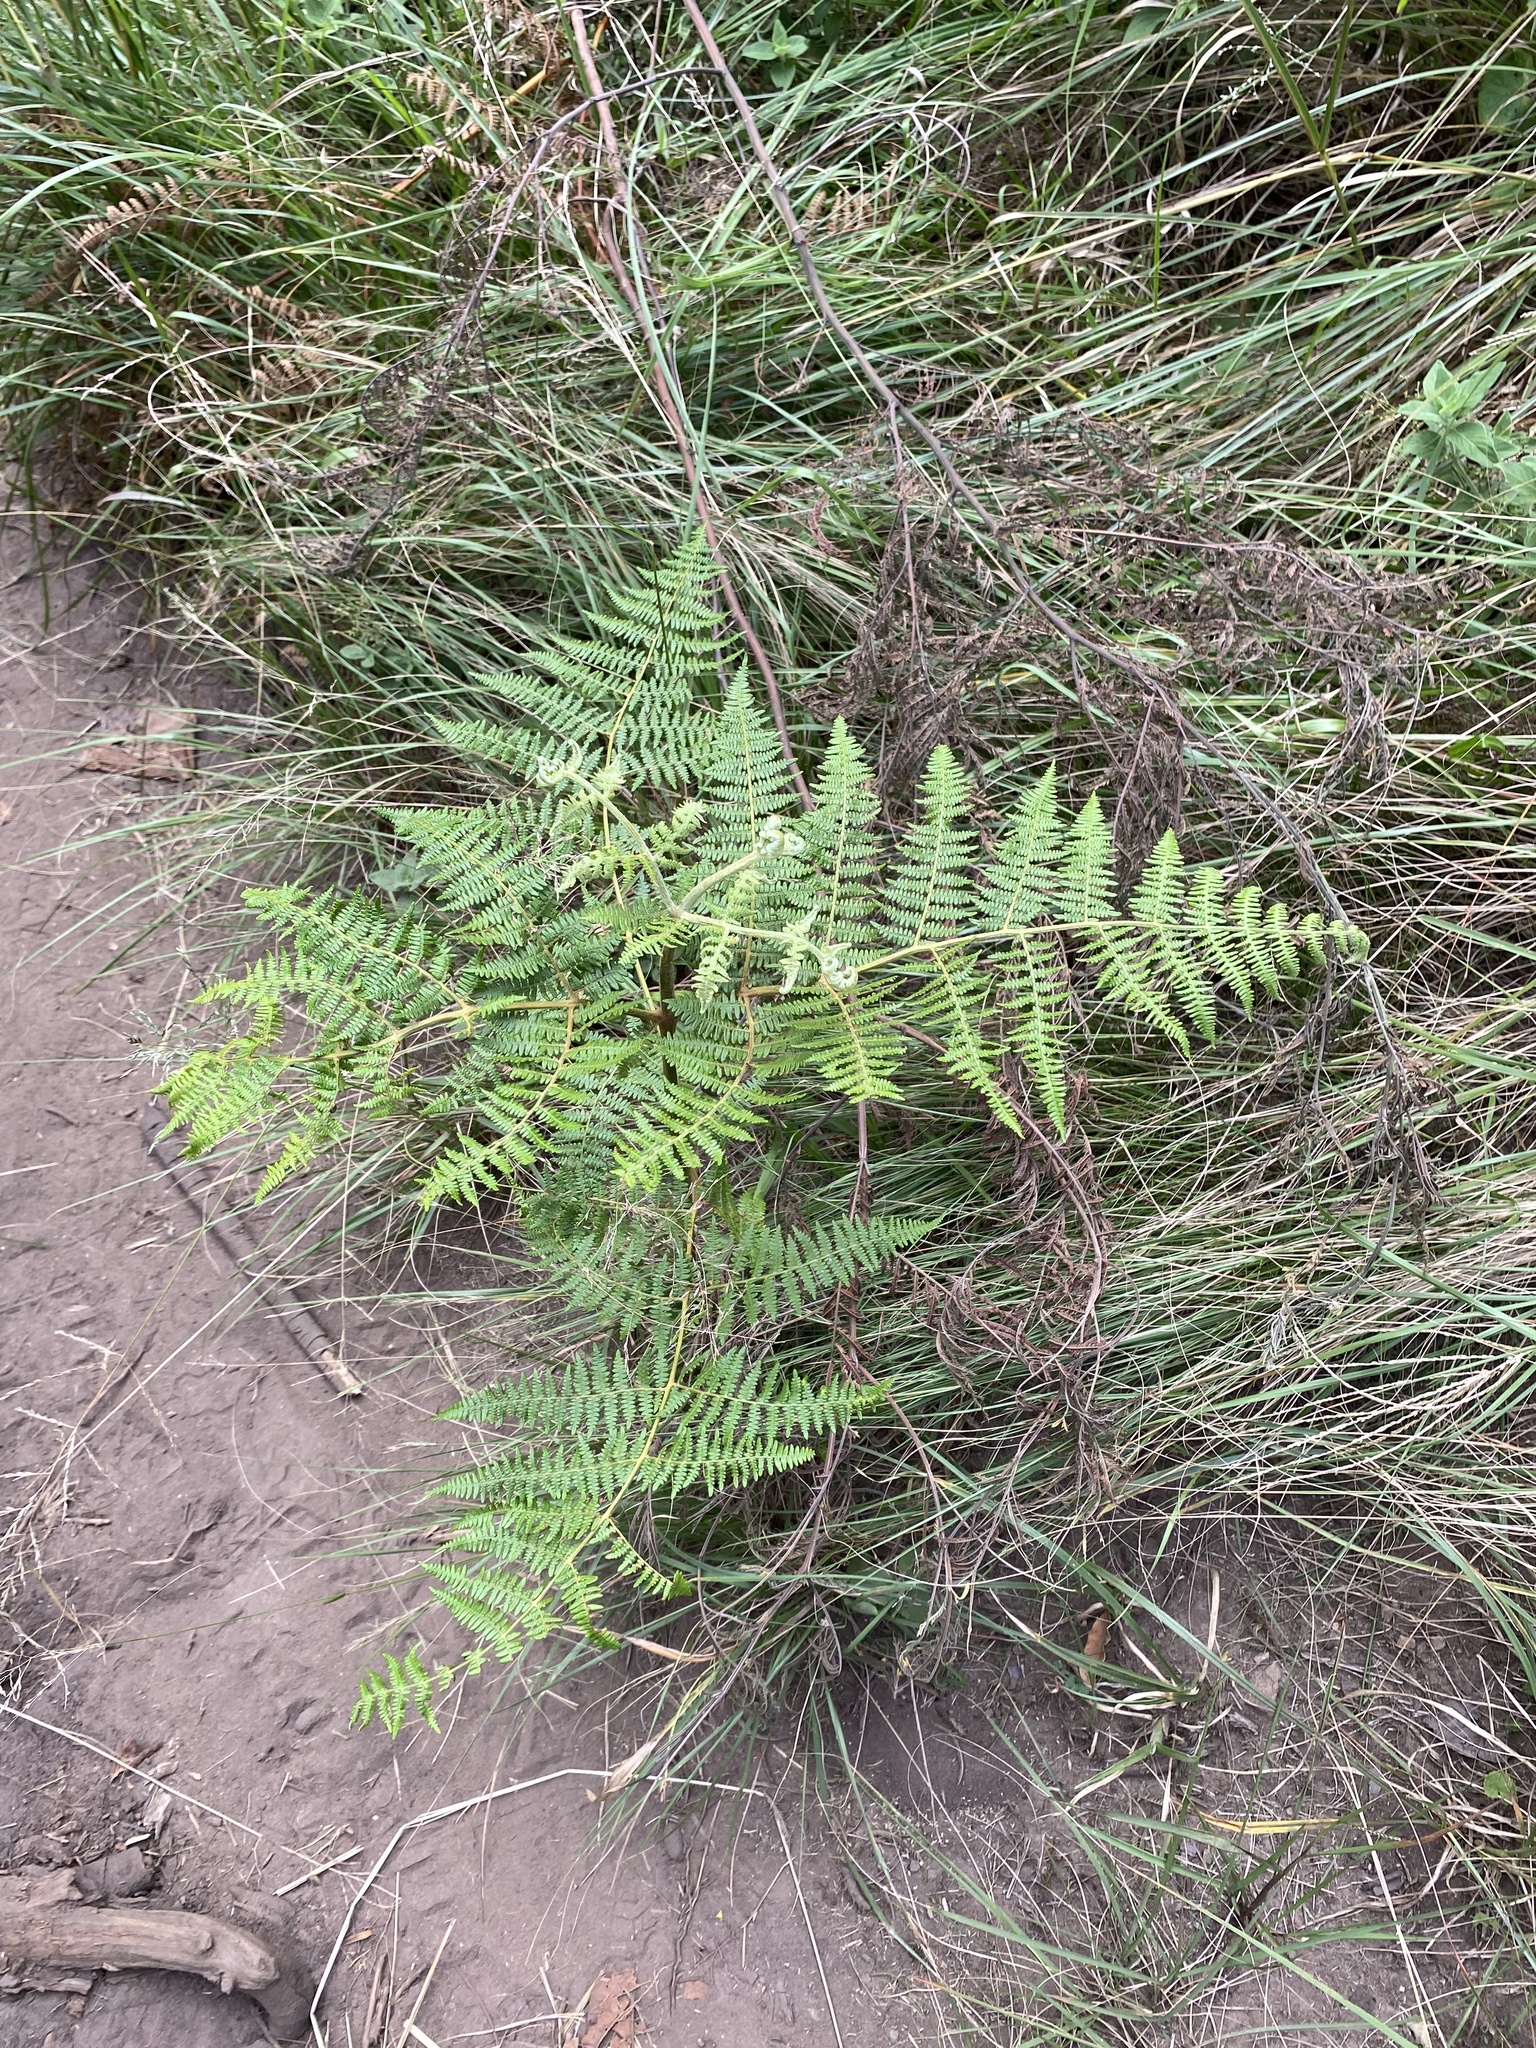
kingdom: Plantae
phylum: Tracheophyta
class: Polypodiopsida
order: Polypodiales
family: Dennstaedtiaceae
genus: Pteridium
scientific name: Pteridium aquilinum
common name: Bracken
